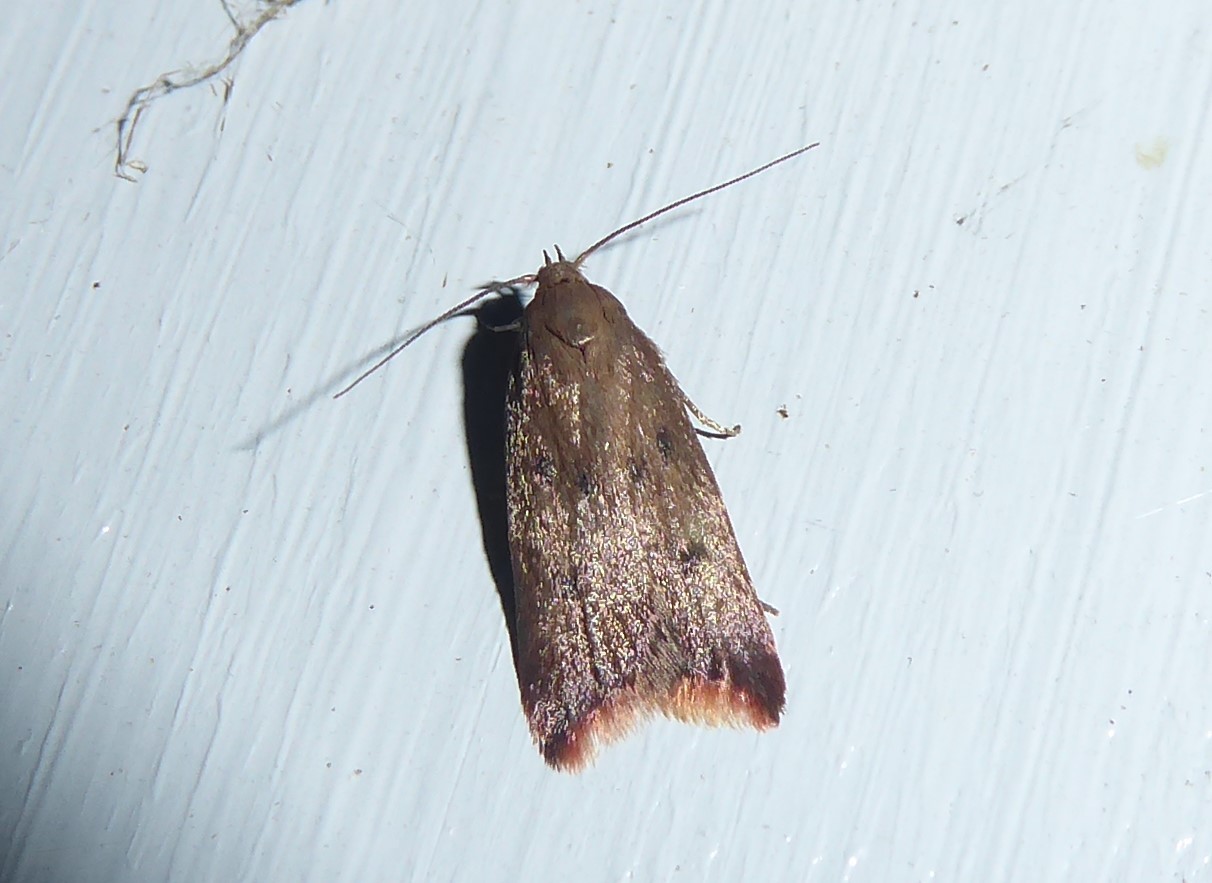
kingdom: Animalia
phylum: Arthropoda
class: Insecta
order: Lepidoptera
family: Oecophoridae
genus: Tachystola
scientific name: Tachystola acroxantha
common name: Ruddy streak
